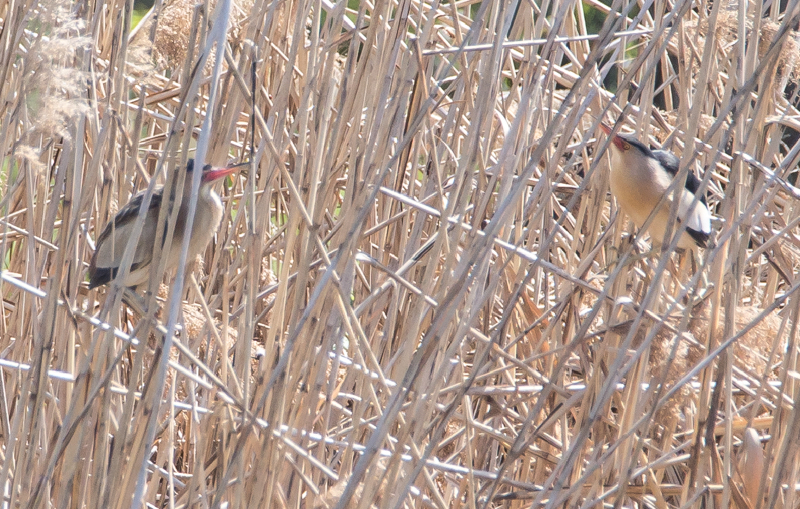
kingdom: Animalia
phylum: Chordata
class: Aves
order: Pelecaniformes
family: Ardeidae
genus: Ixobrychus
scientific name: Ixobrychus minutus
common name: Little bittern
